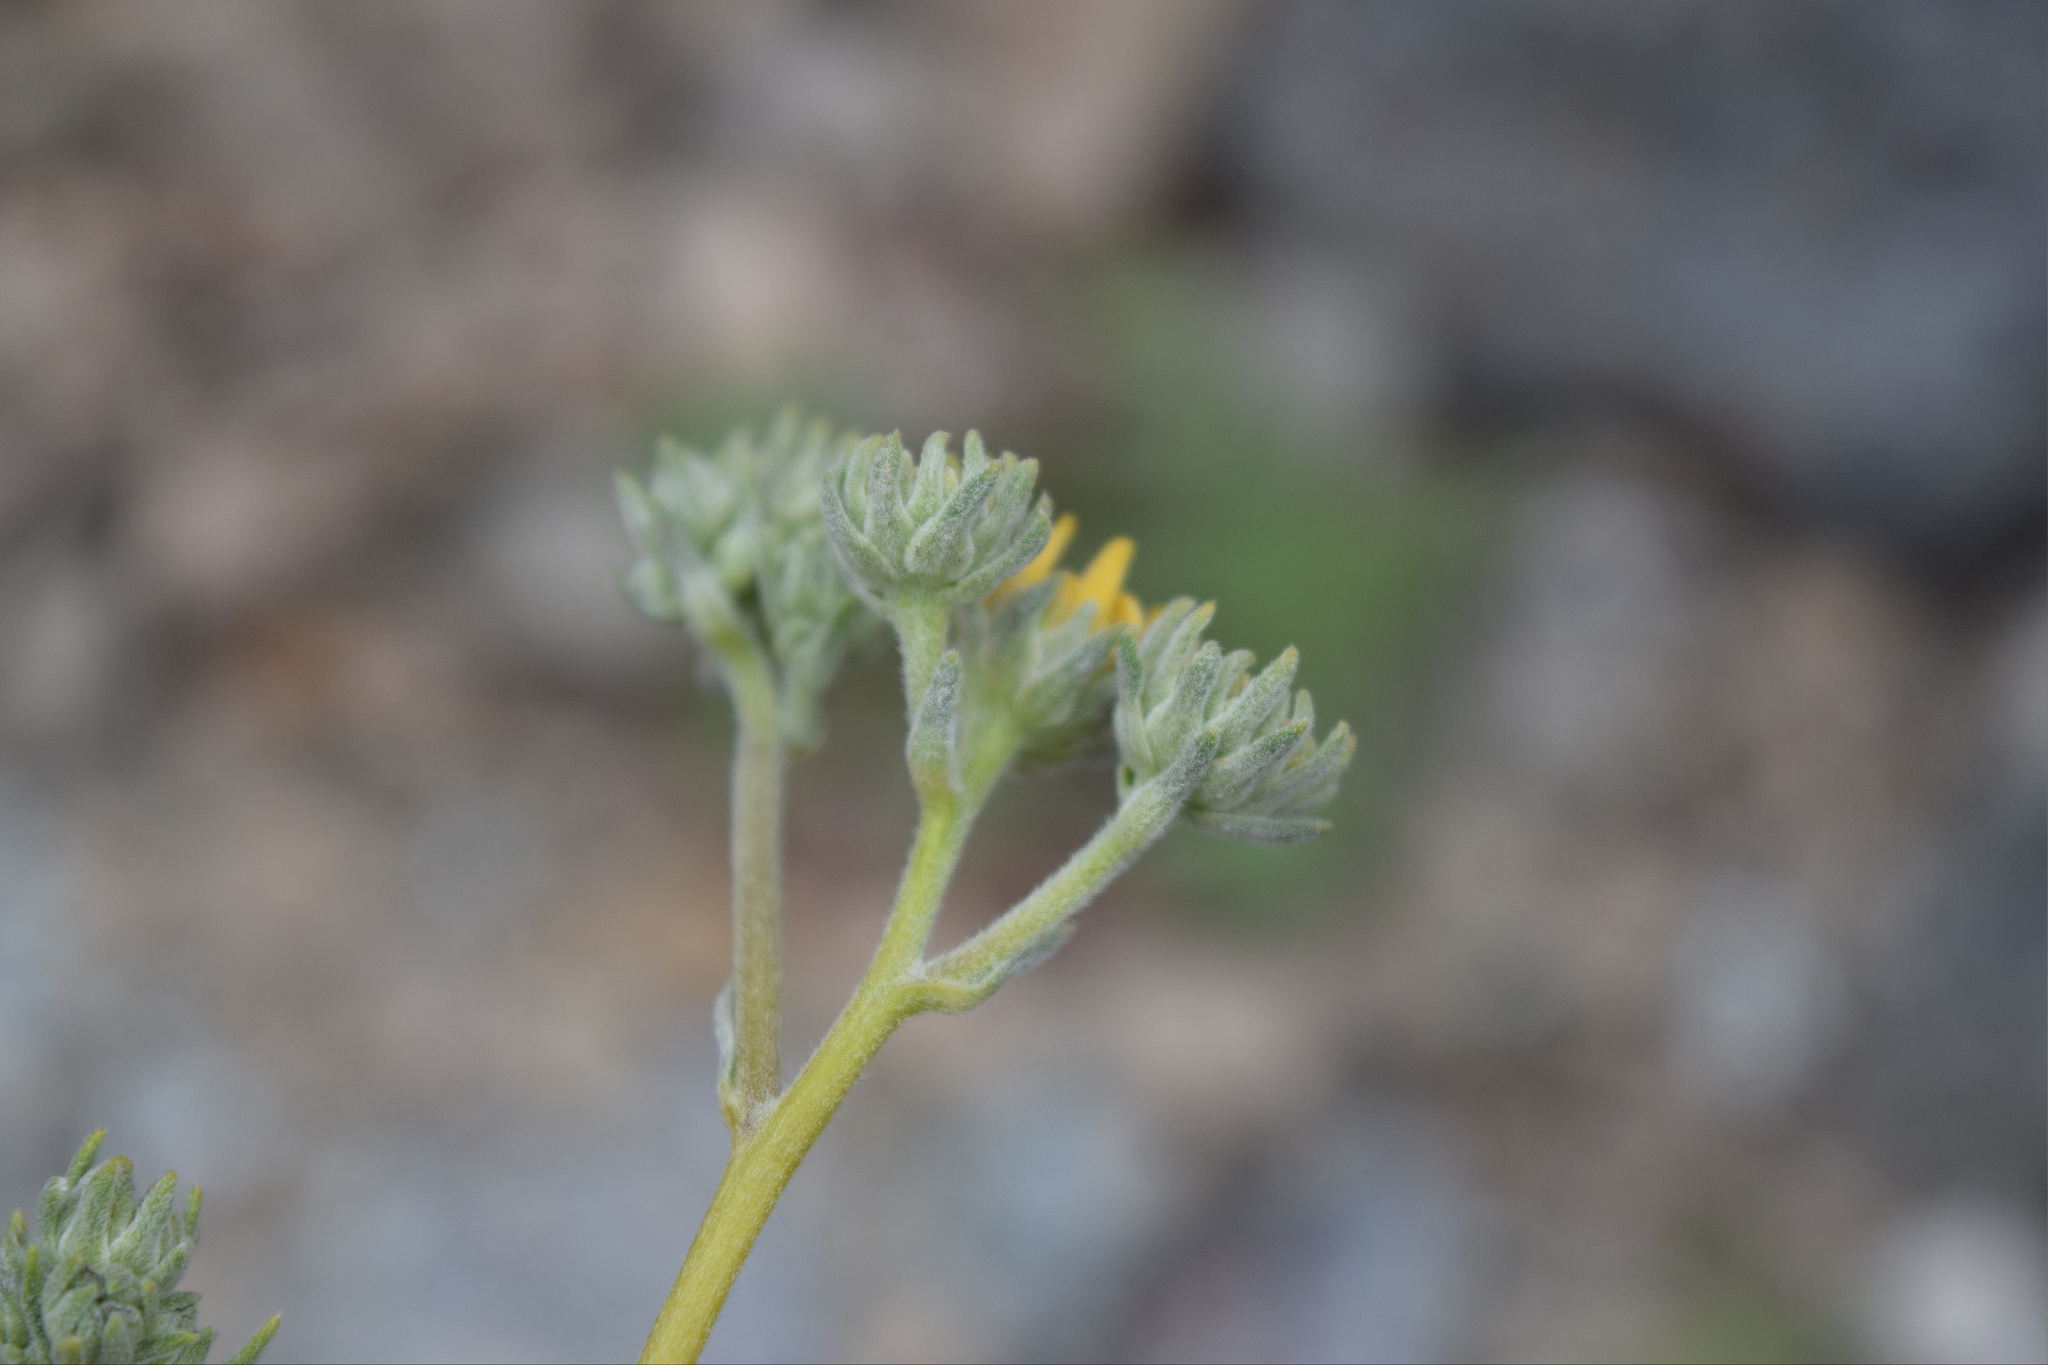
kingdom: Plantae
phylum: Tracheophyta
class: Magnoliopsida
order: Asterales
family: Asteraceae
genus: Bahiopsis
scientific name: Bahiopsis reticulata
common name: Death valley goldeneye
